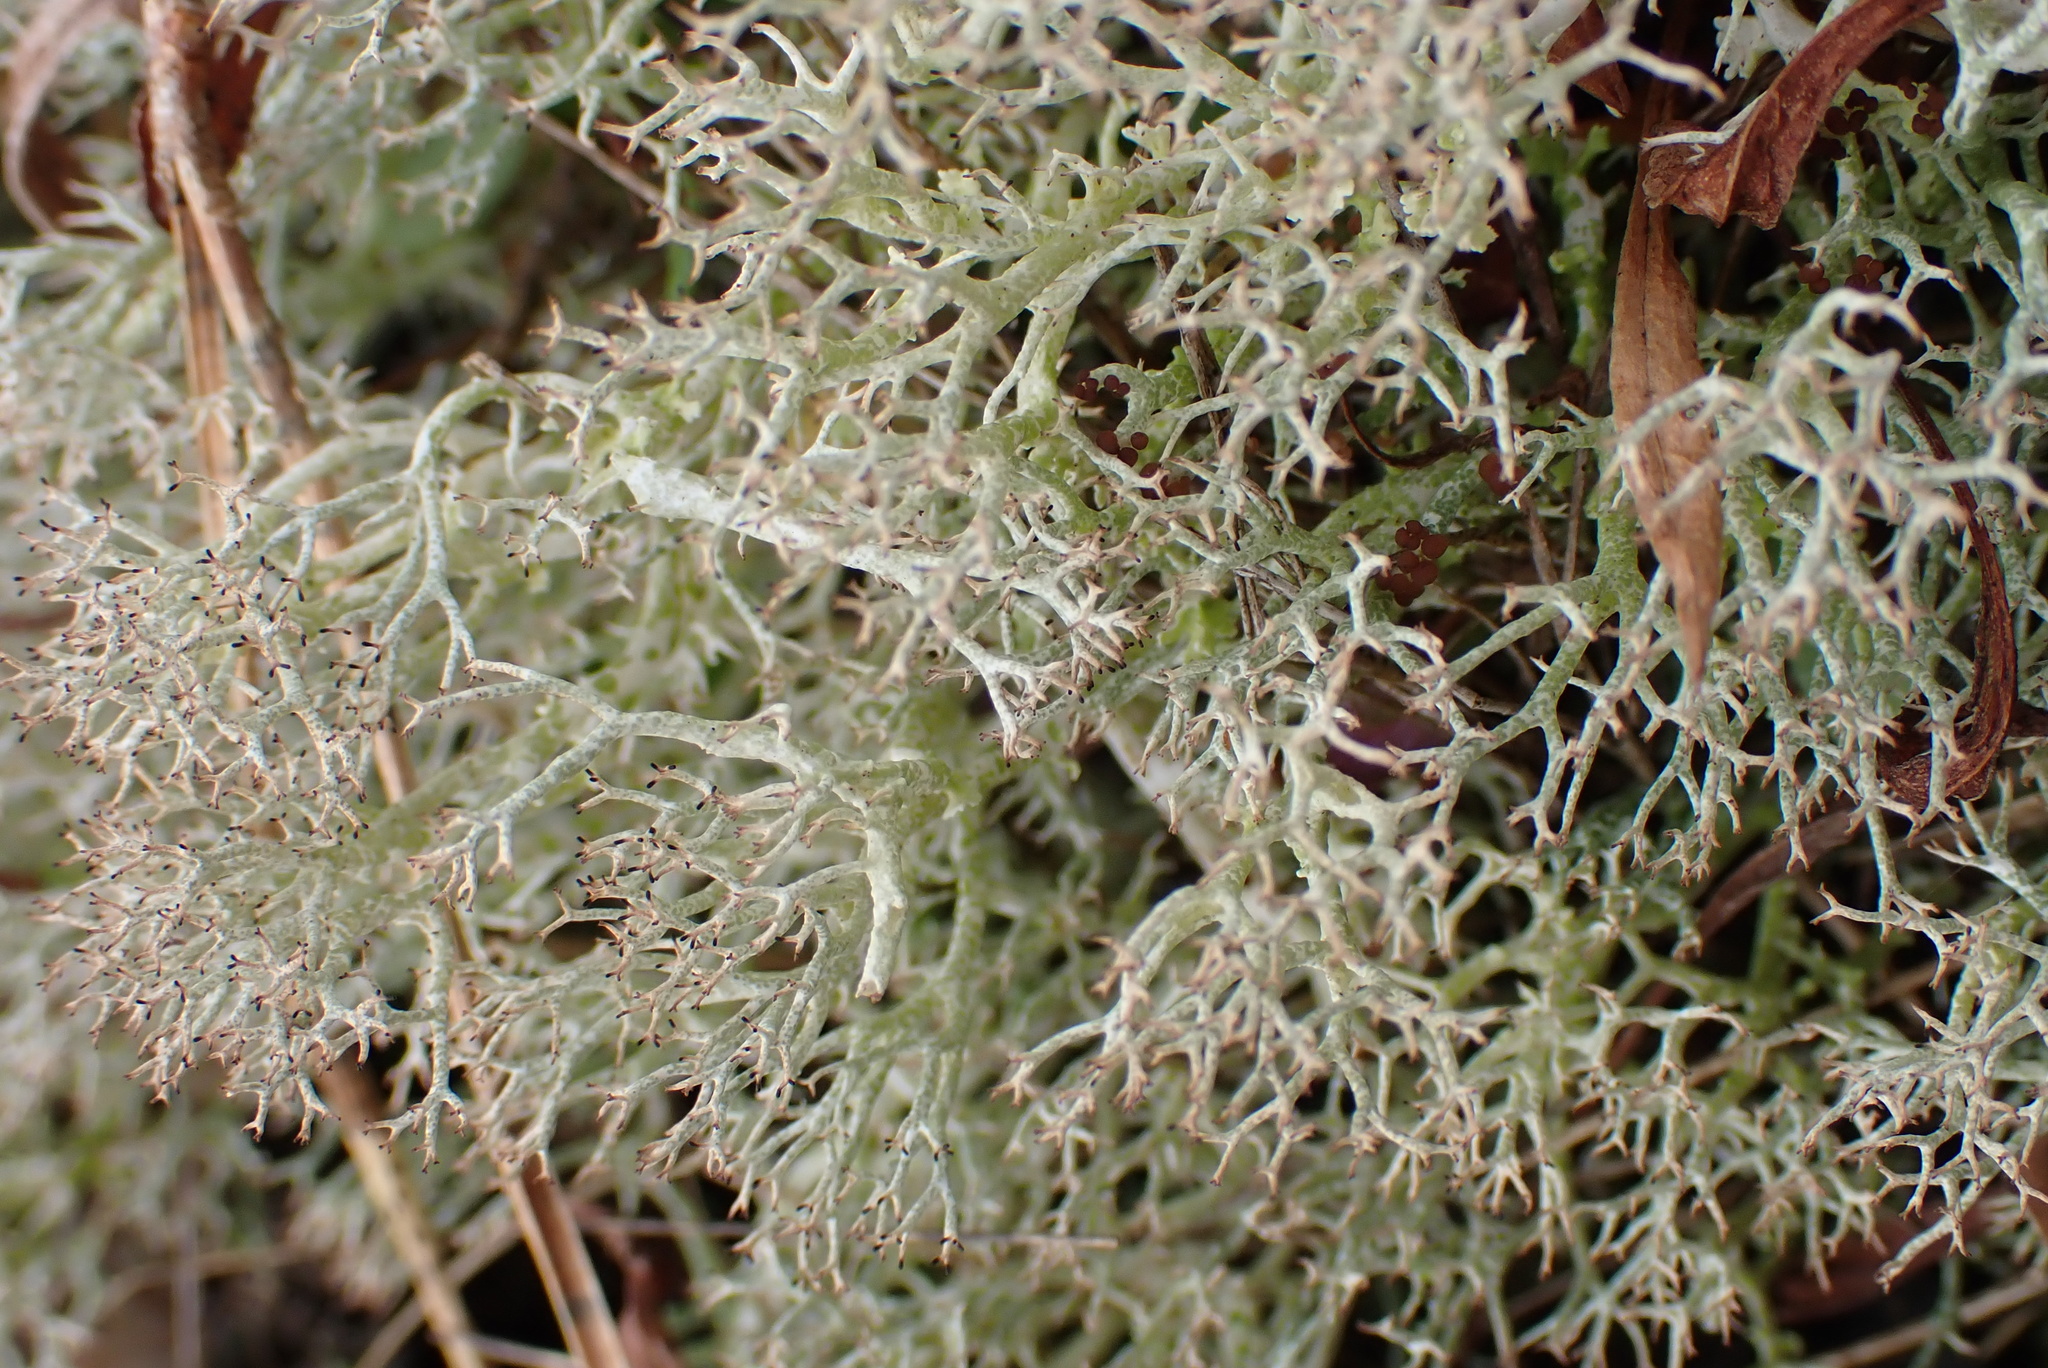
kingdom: Fungi
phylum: Ascomycota
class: Lecanoromycetes
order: Lecanorales
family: Cladoniaceae
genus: Cladonia
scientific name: Cladonia rangiformis
